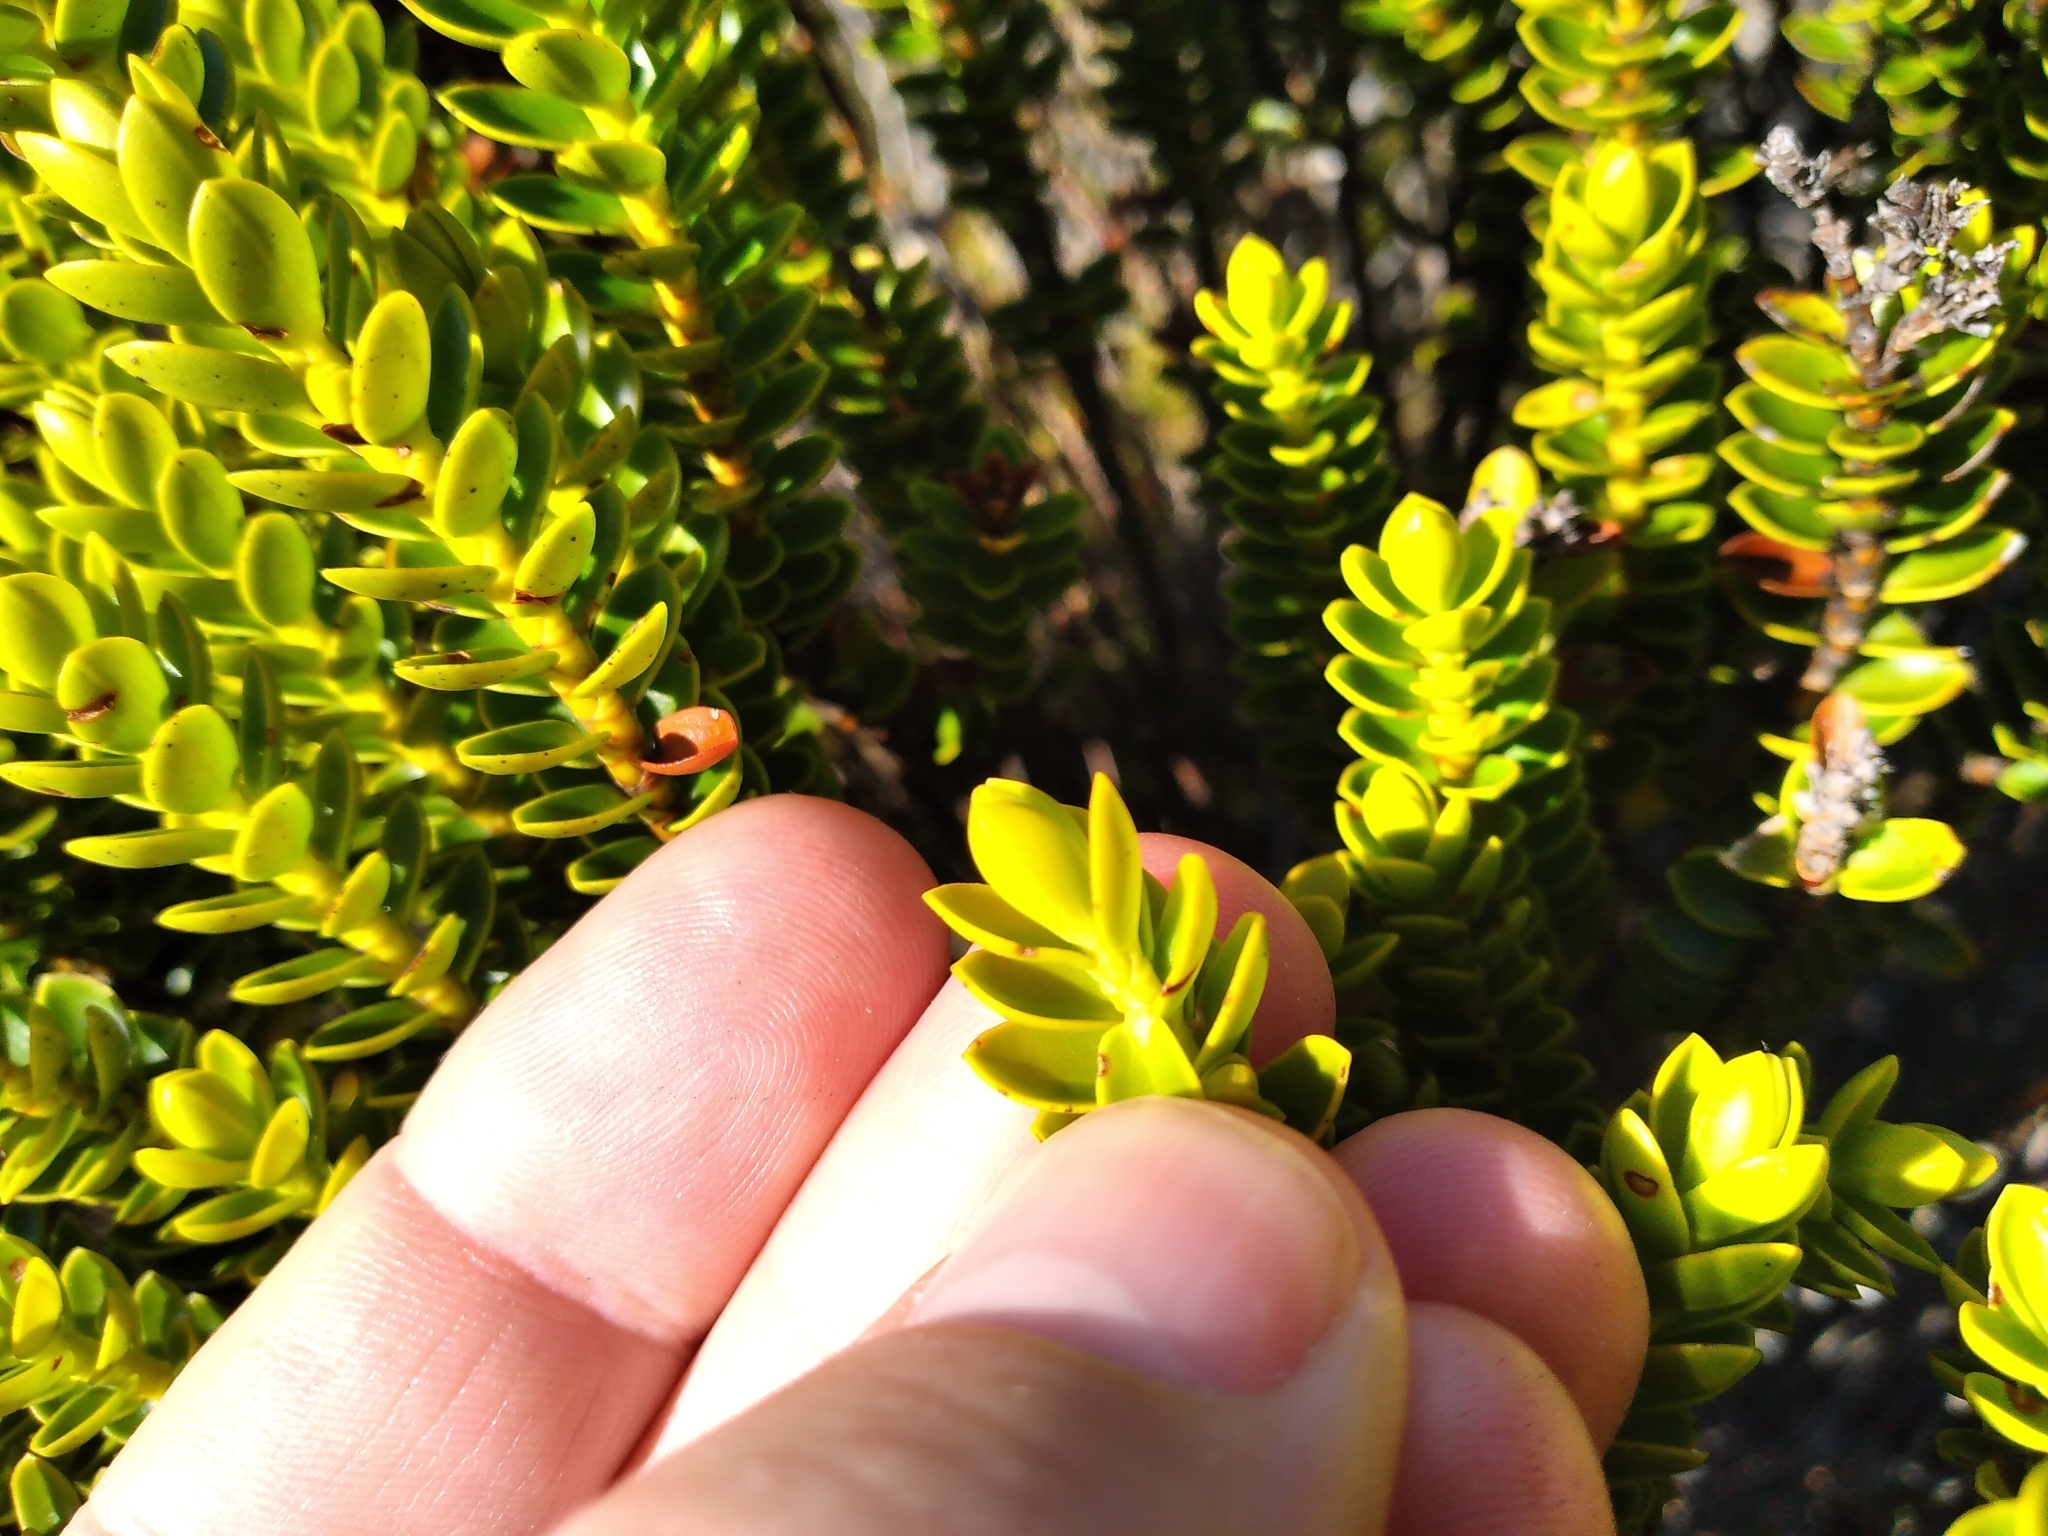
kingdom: Plantae
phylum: Tracheophyta
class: Magnoliopsida
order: Lamiales
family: Plantaginaceae
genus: Veronica
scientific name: Veronica odora
